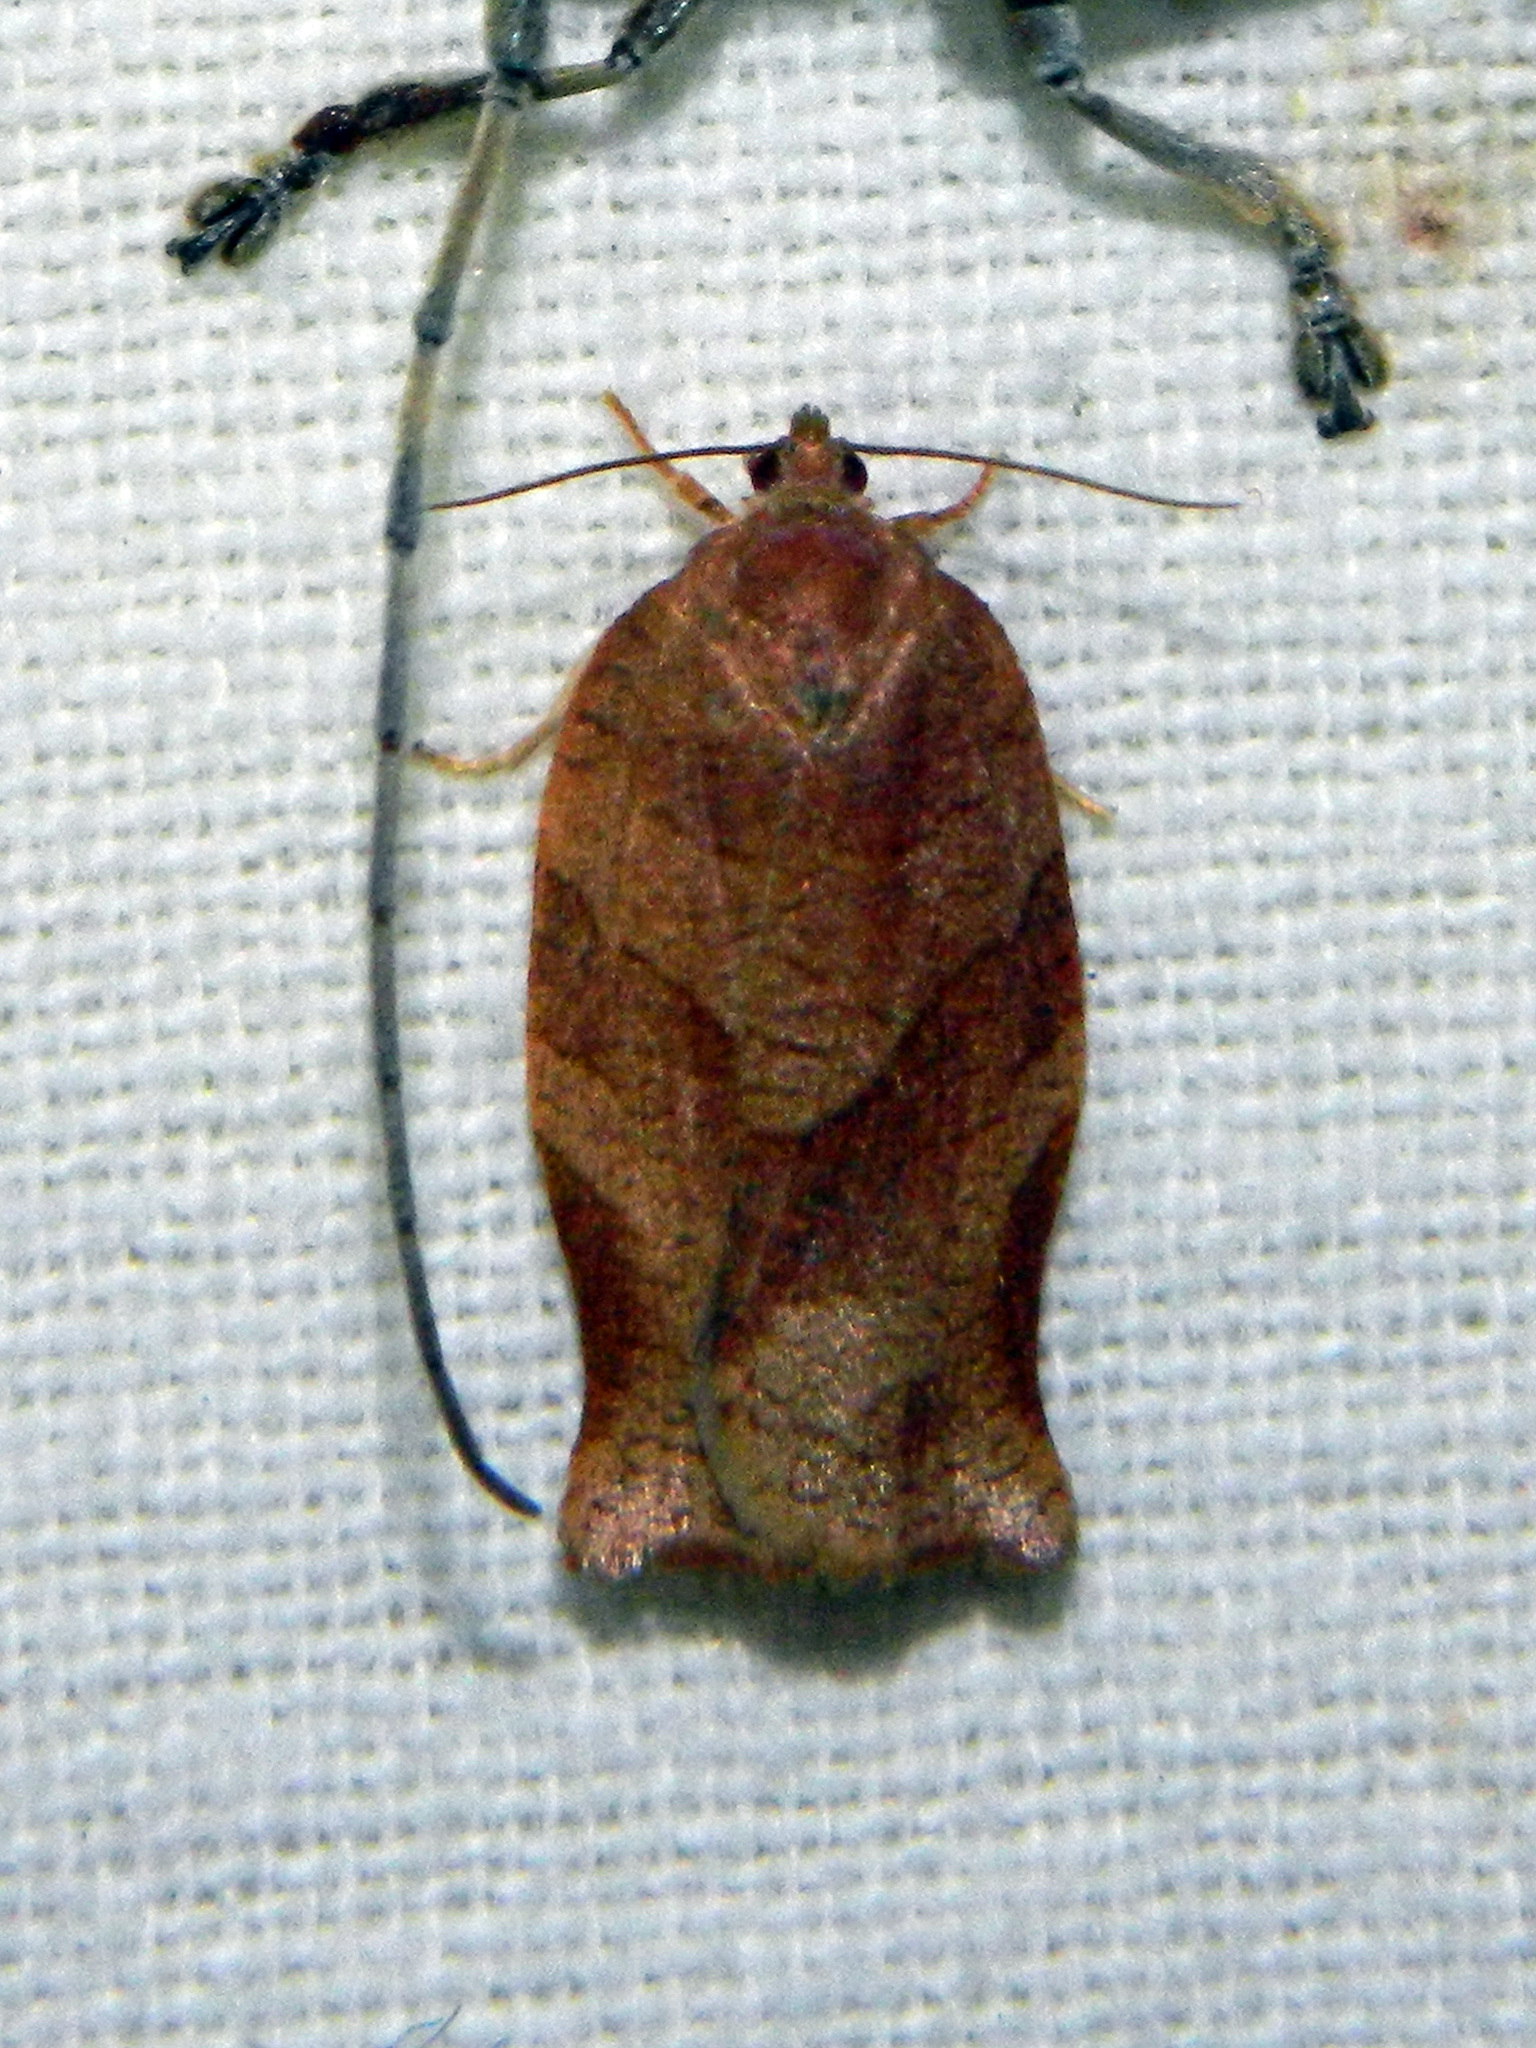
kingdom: Animalia
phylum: Arthropoda
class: Insecta
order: Lepidoptera
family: Tortricidae
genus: Choristoneura
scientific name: Choristoneura rosaceana
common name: Oblique-banded leafroller moth
